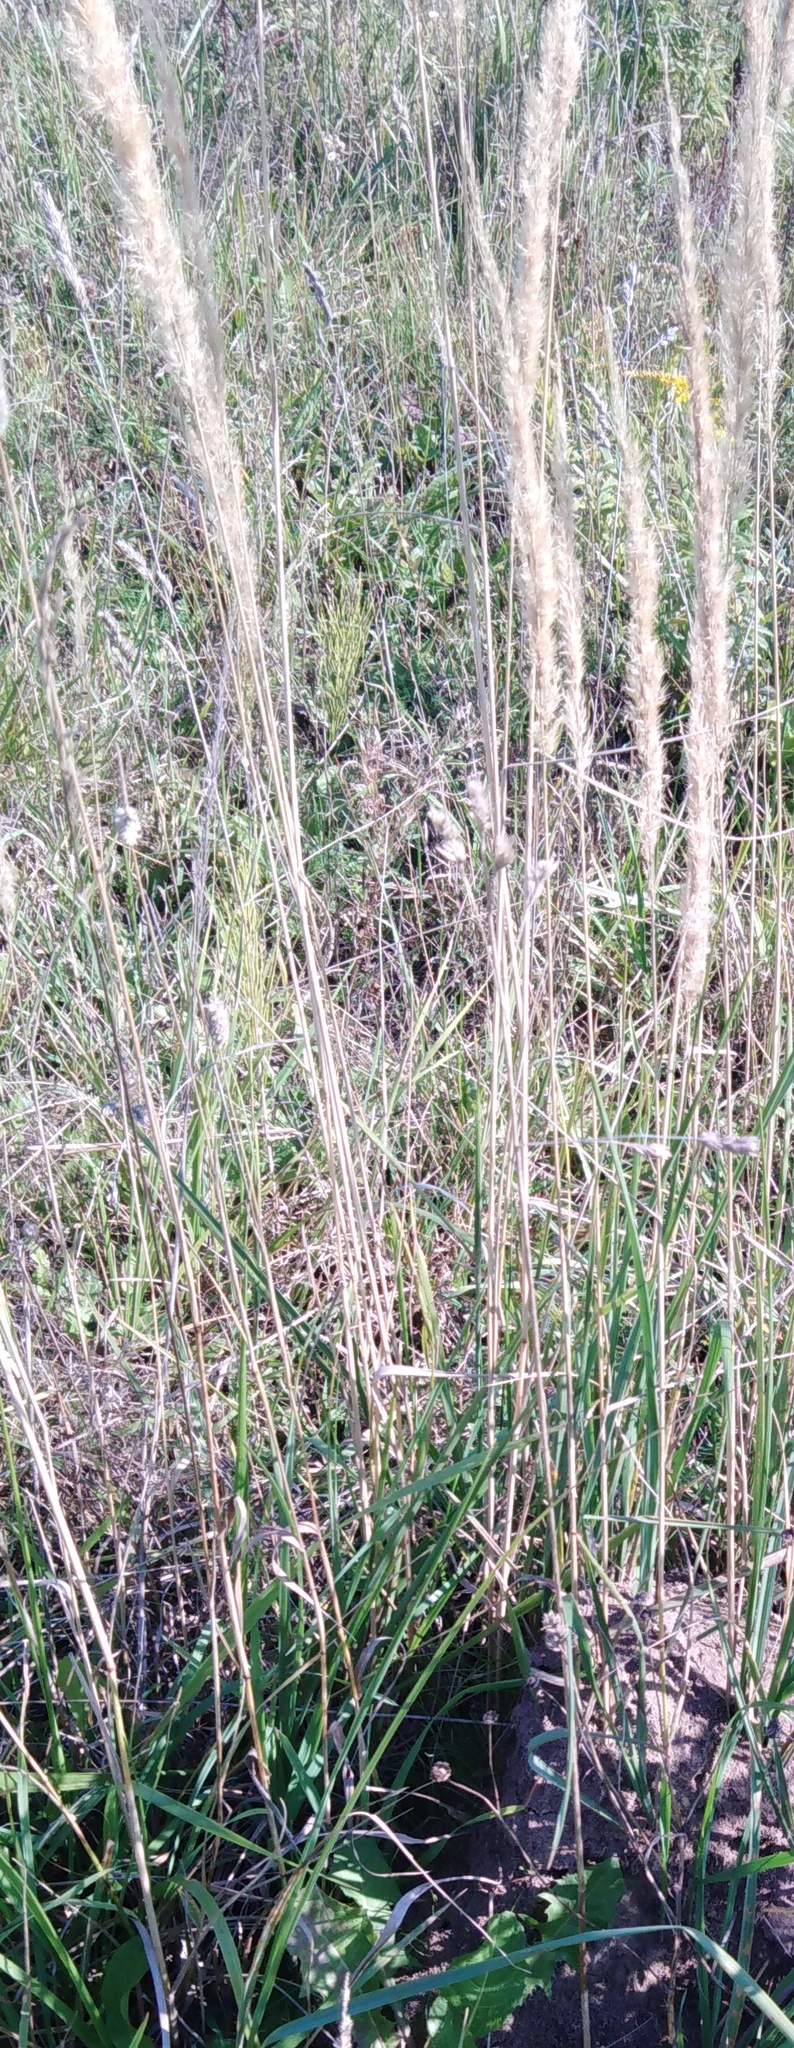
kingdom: Plantae
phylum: Tracheophyta
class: Liliopsida
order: Poales
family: Poaceae
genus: Calamagrostis
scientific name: Calamagrostis epigejos
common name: Wood small-reed
